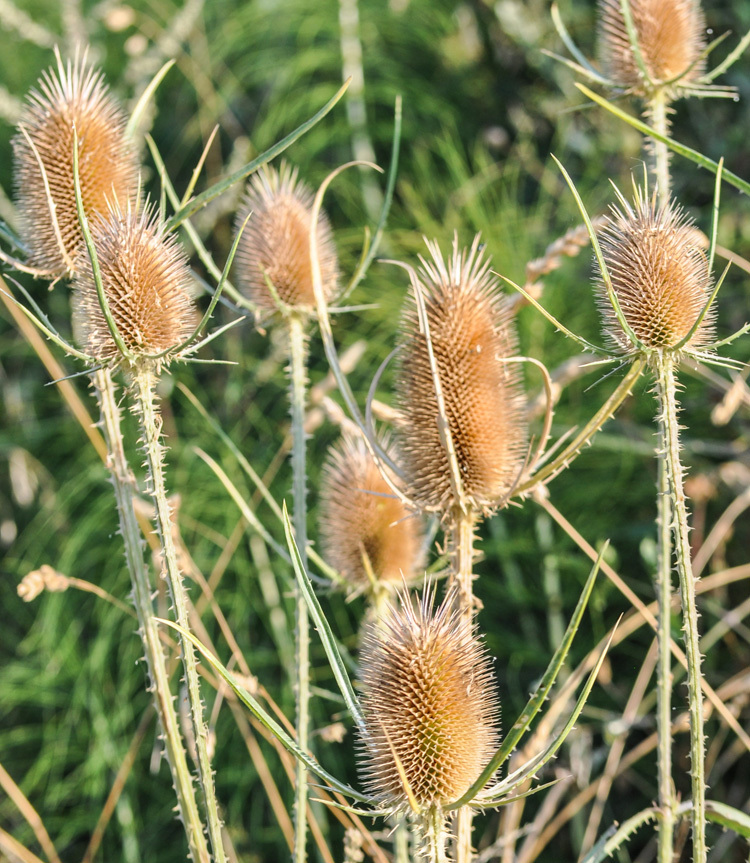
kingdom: Plantae
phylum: Tracheophyta
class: Magnoliopsida
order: Dipsacales
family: Caprifoliaceae
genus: Dipsacus
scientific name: Dipsacus fullonum
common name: Teasel
